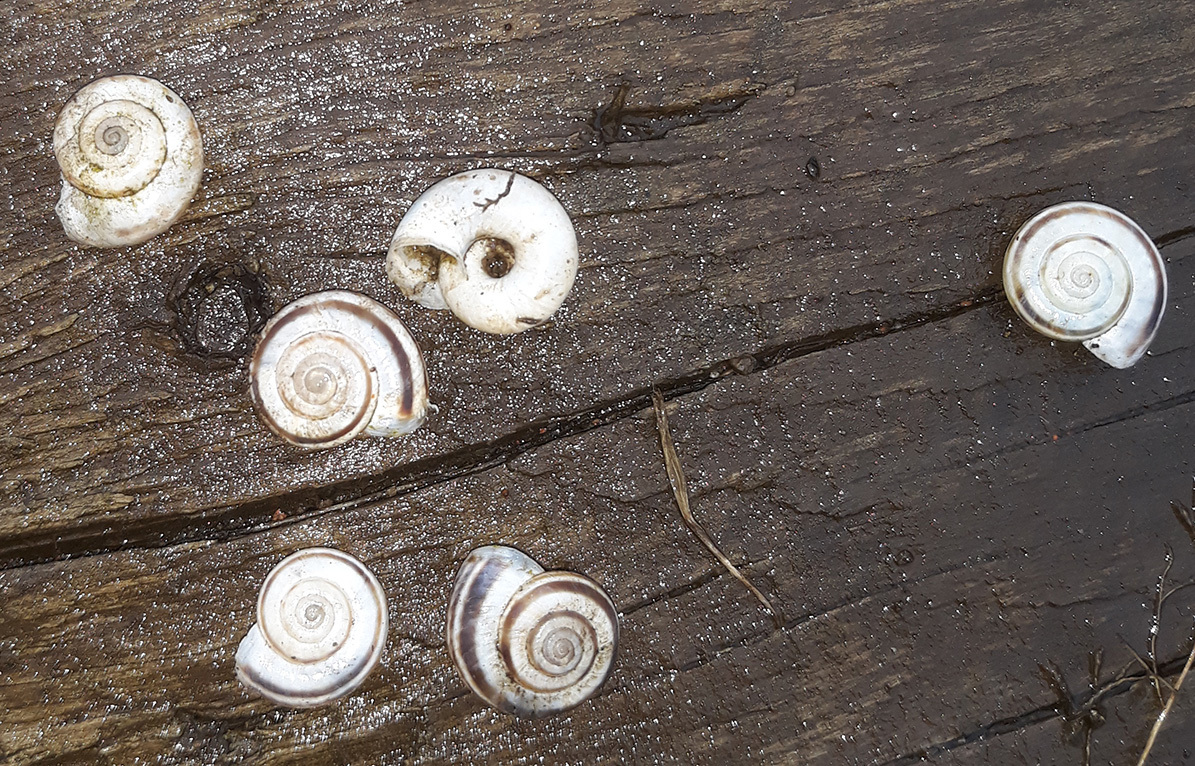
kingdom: Animalia
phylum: Mollusca
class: Gastropoda
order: Stylommatophora
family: Geomitridae
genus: Xerolenta
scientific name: Xerolenta obvia
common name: White heath snail
